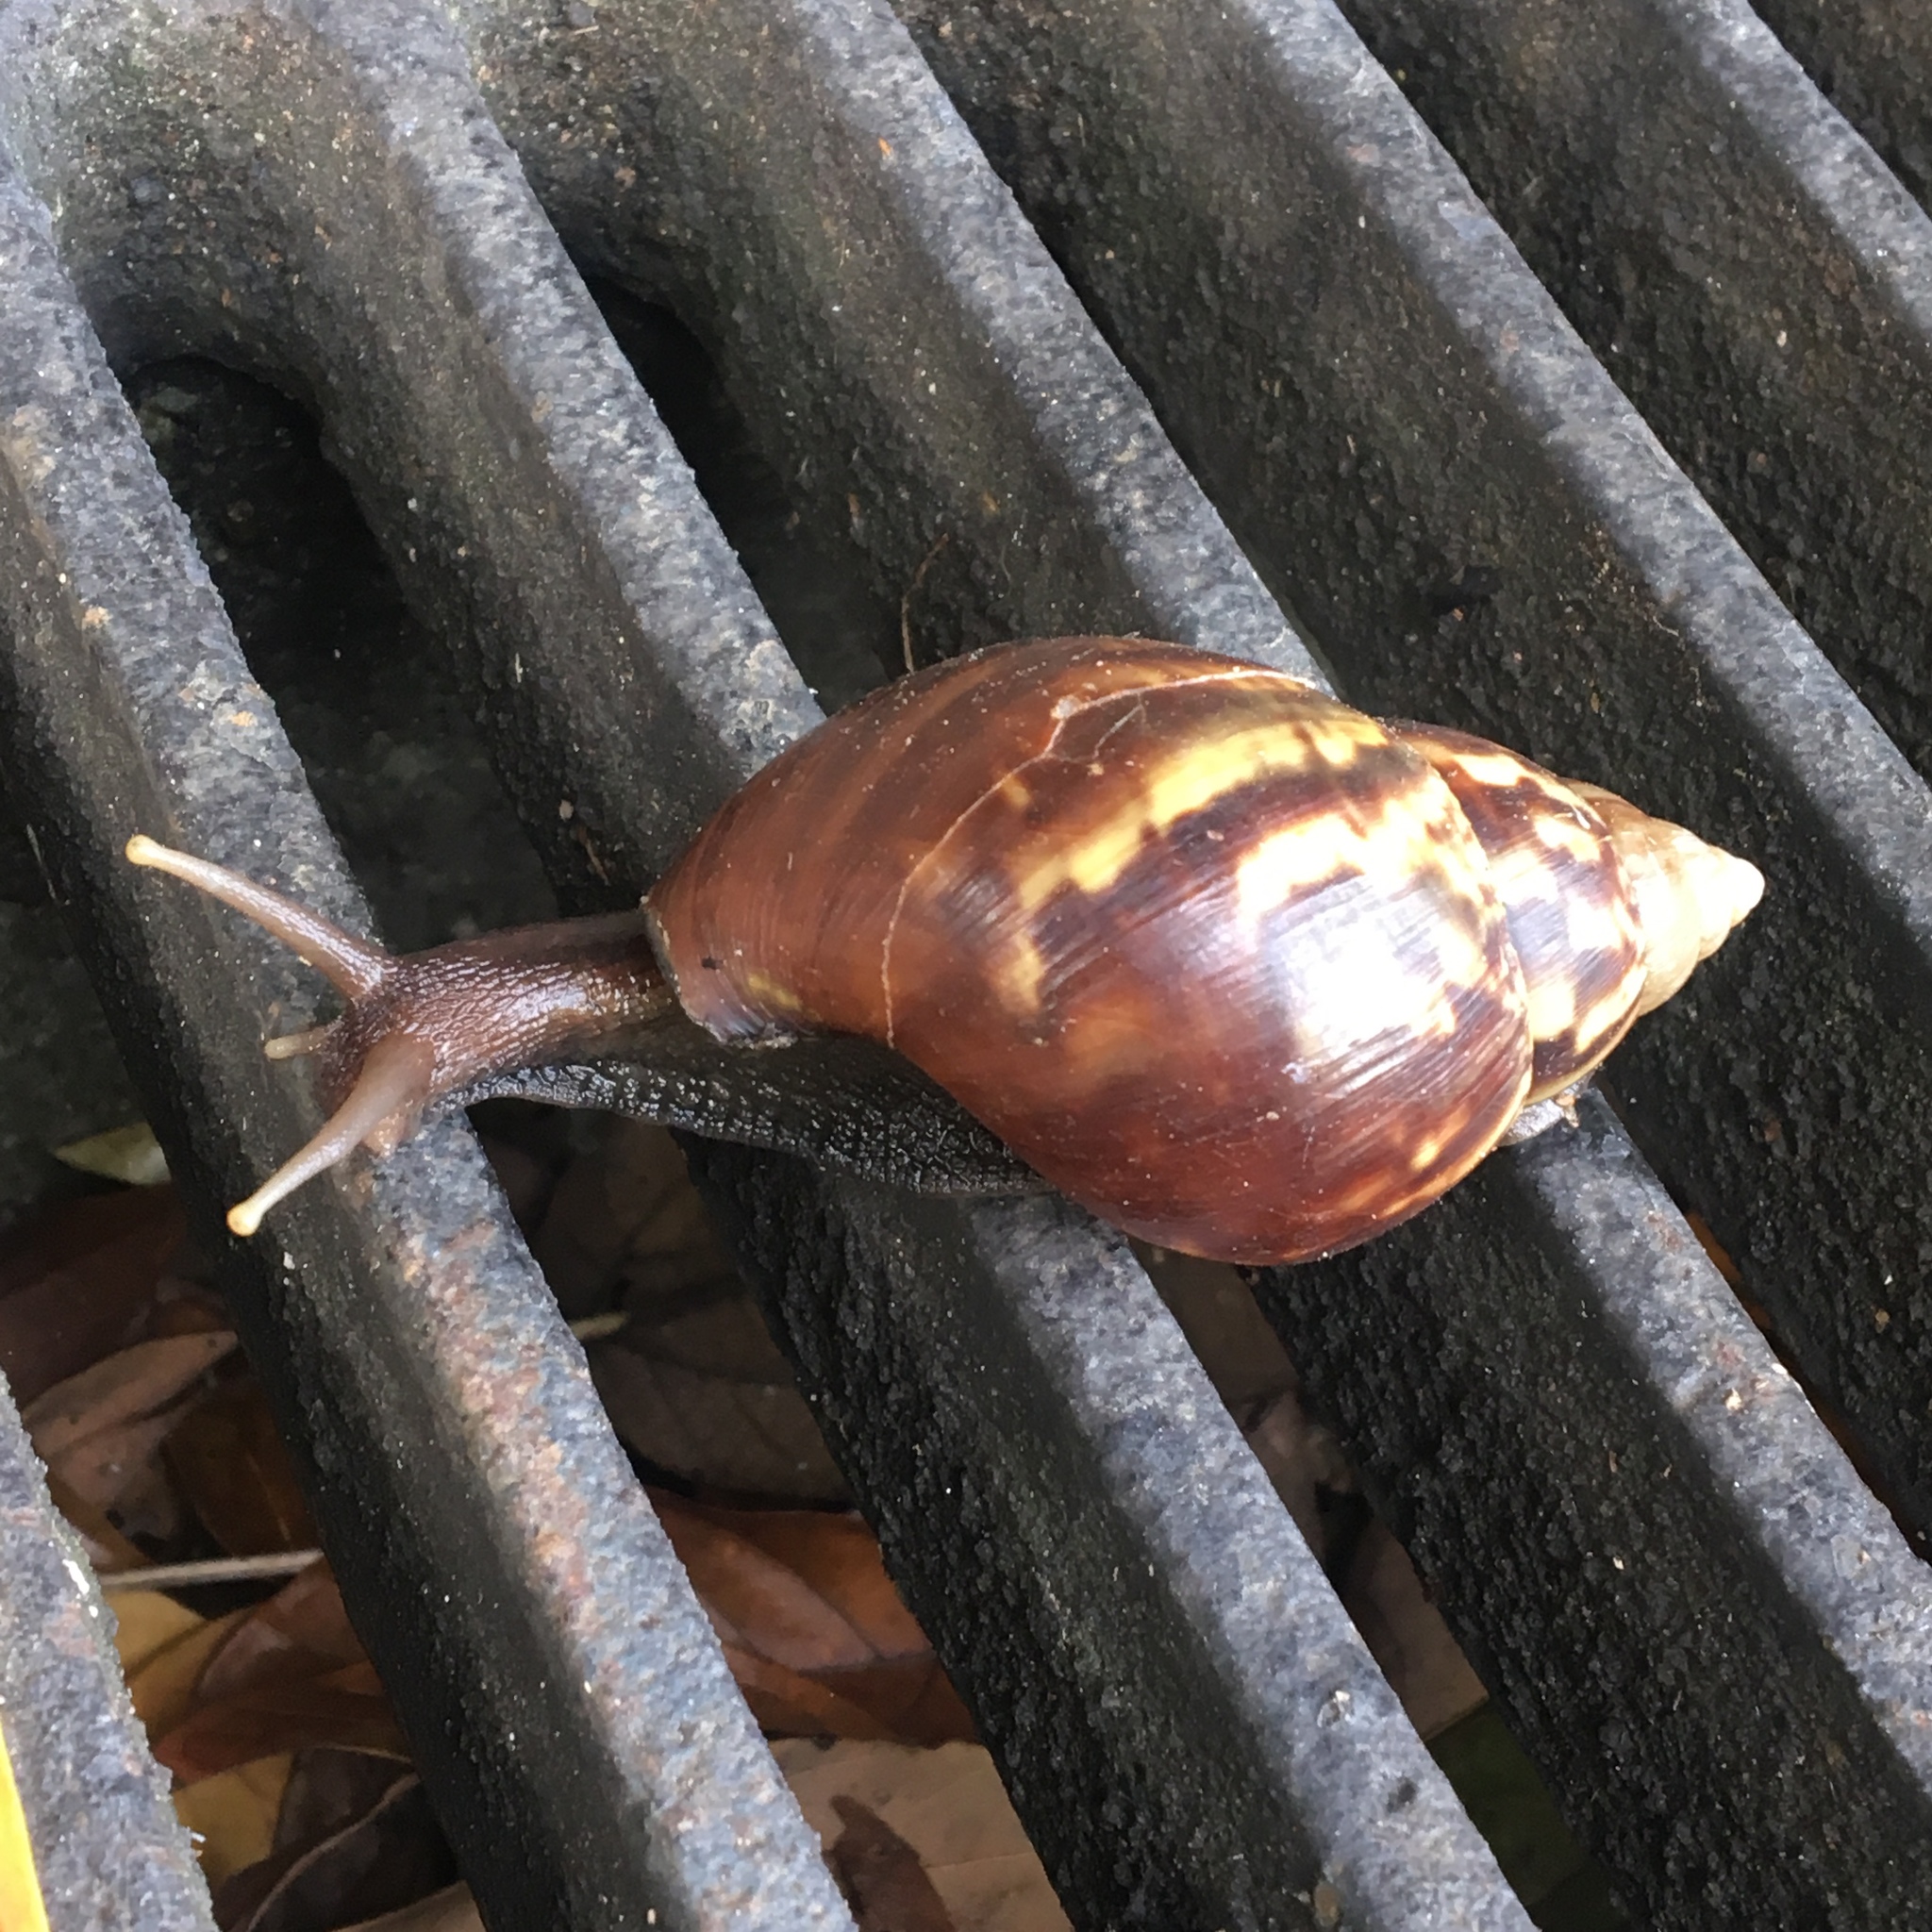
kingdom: Animalia
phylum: Mollusca
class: Gastropoda
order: Stylommatophora
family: Achatinidae
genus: Lissachatina
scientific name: Lissachatina fulica
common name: Giant african snail
